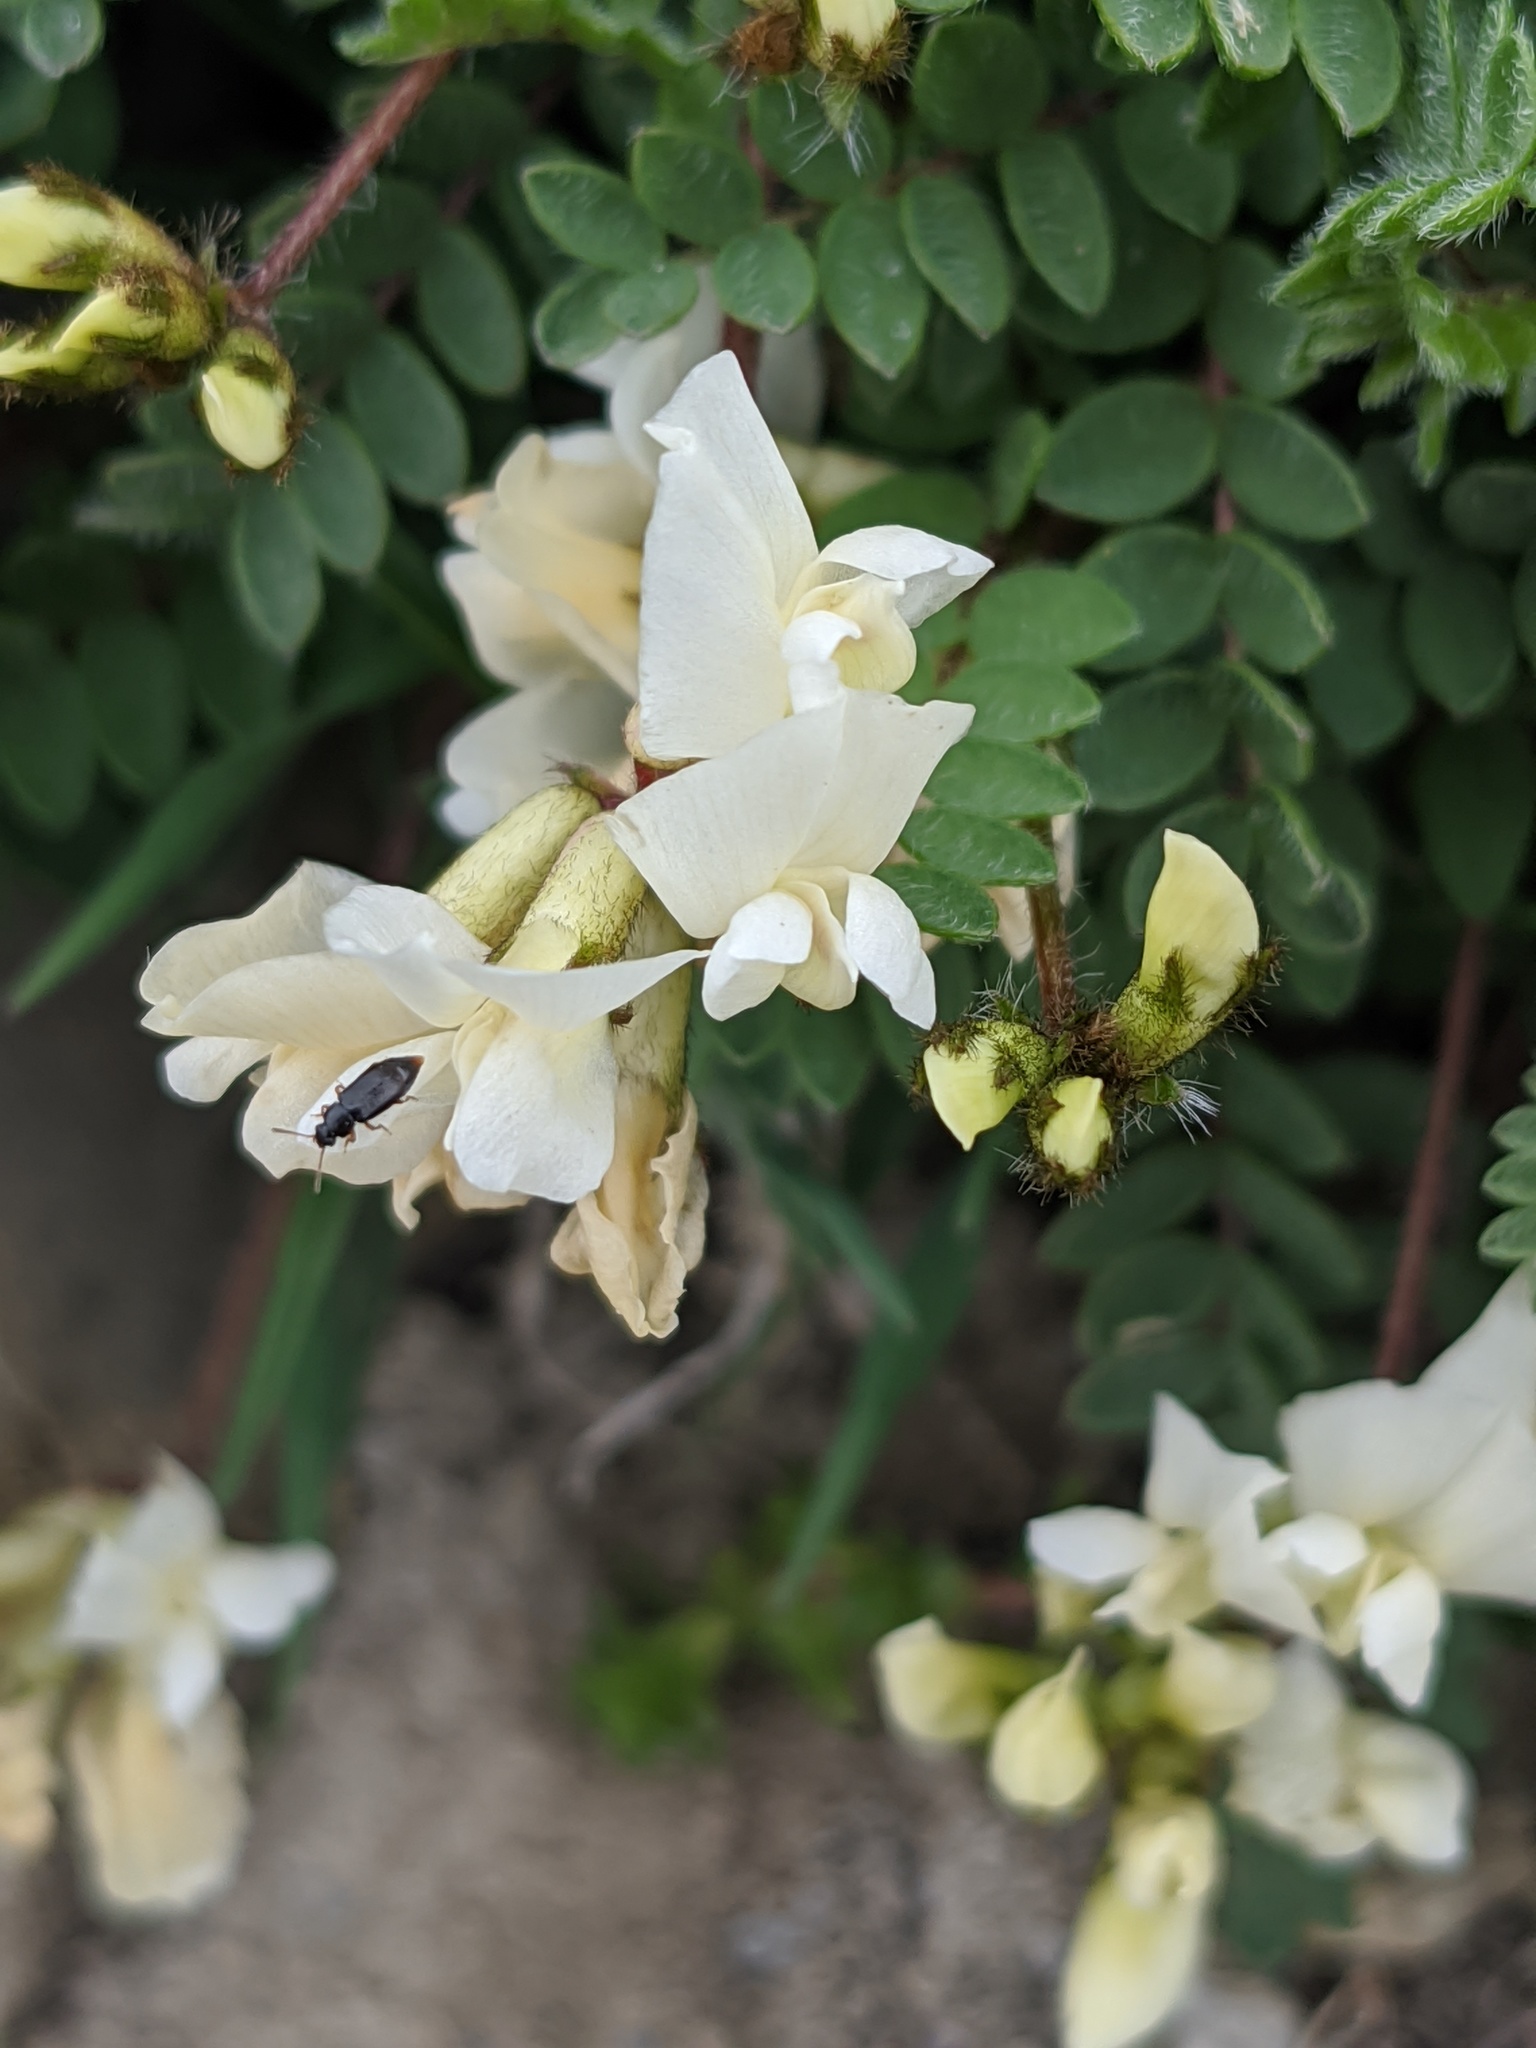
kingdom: Plantae
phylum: Tracheophyta
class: Magnoliopsida
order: Fabales
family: Fabaceae
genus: Oxytropis
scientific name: Oxytropis helvetica
